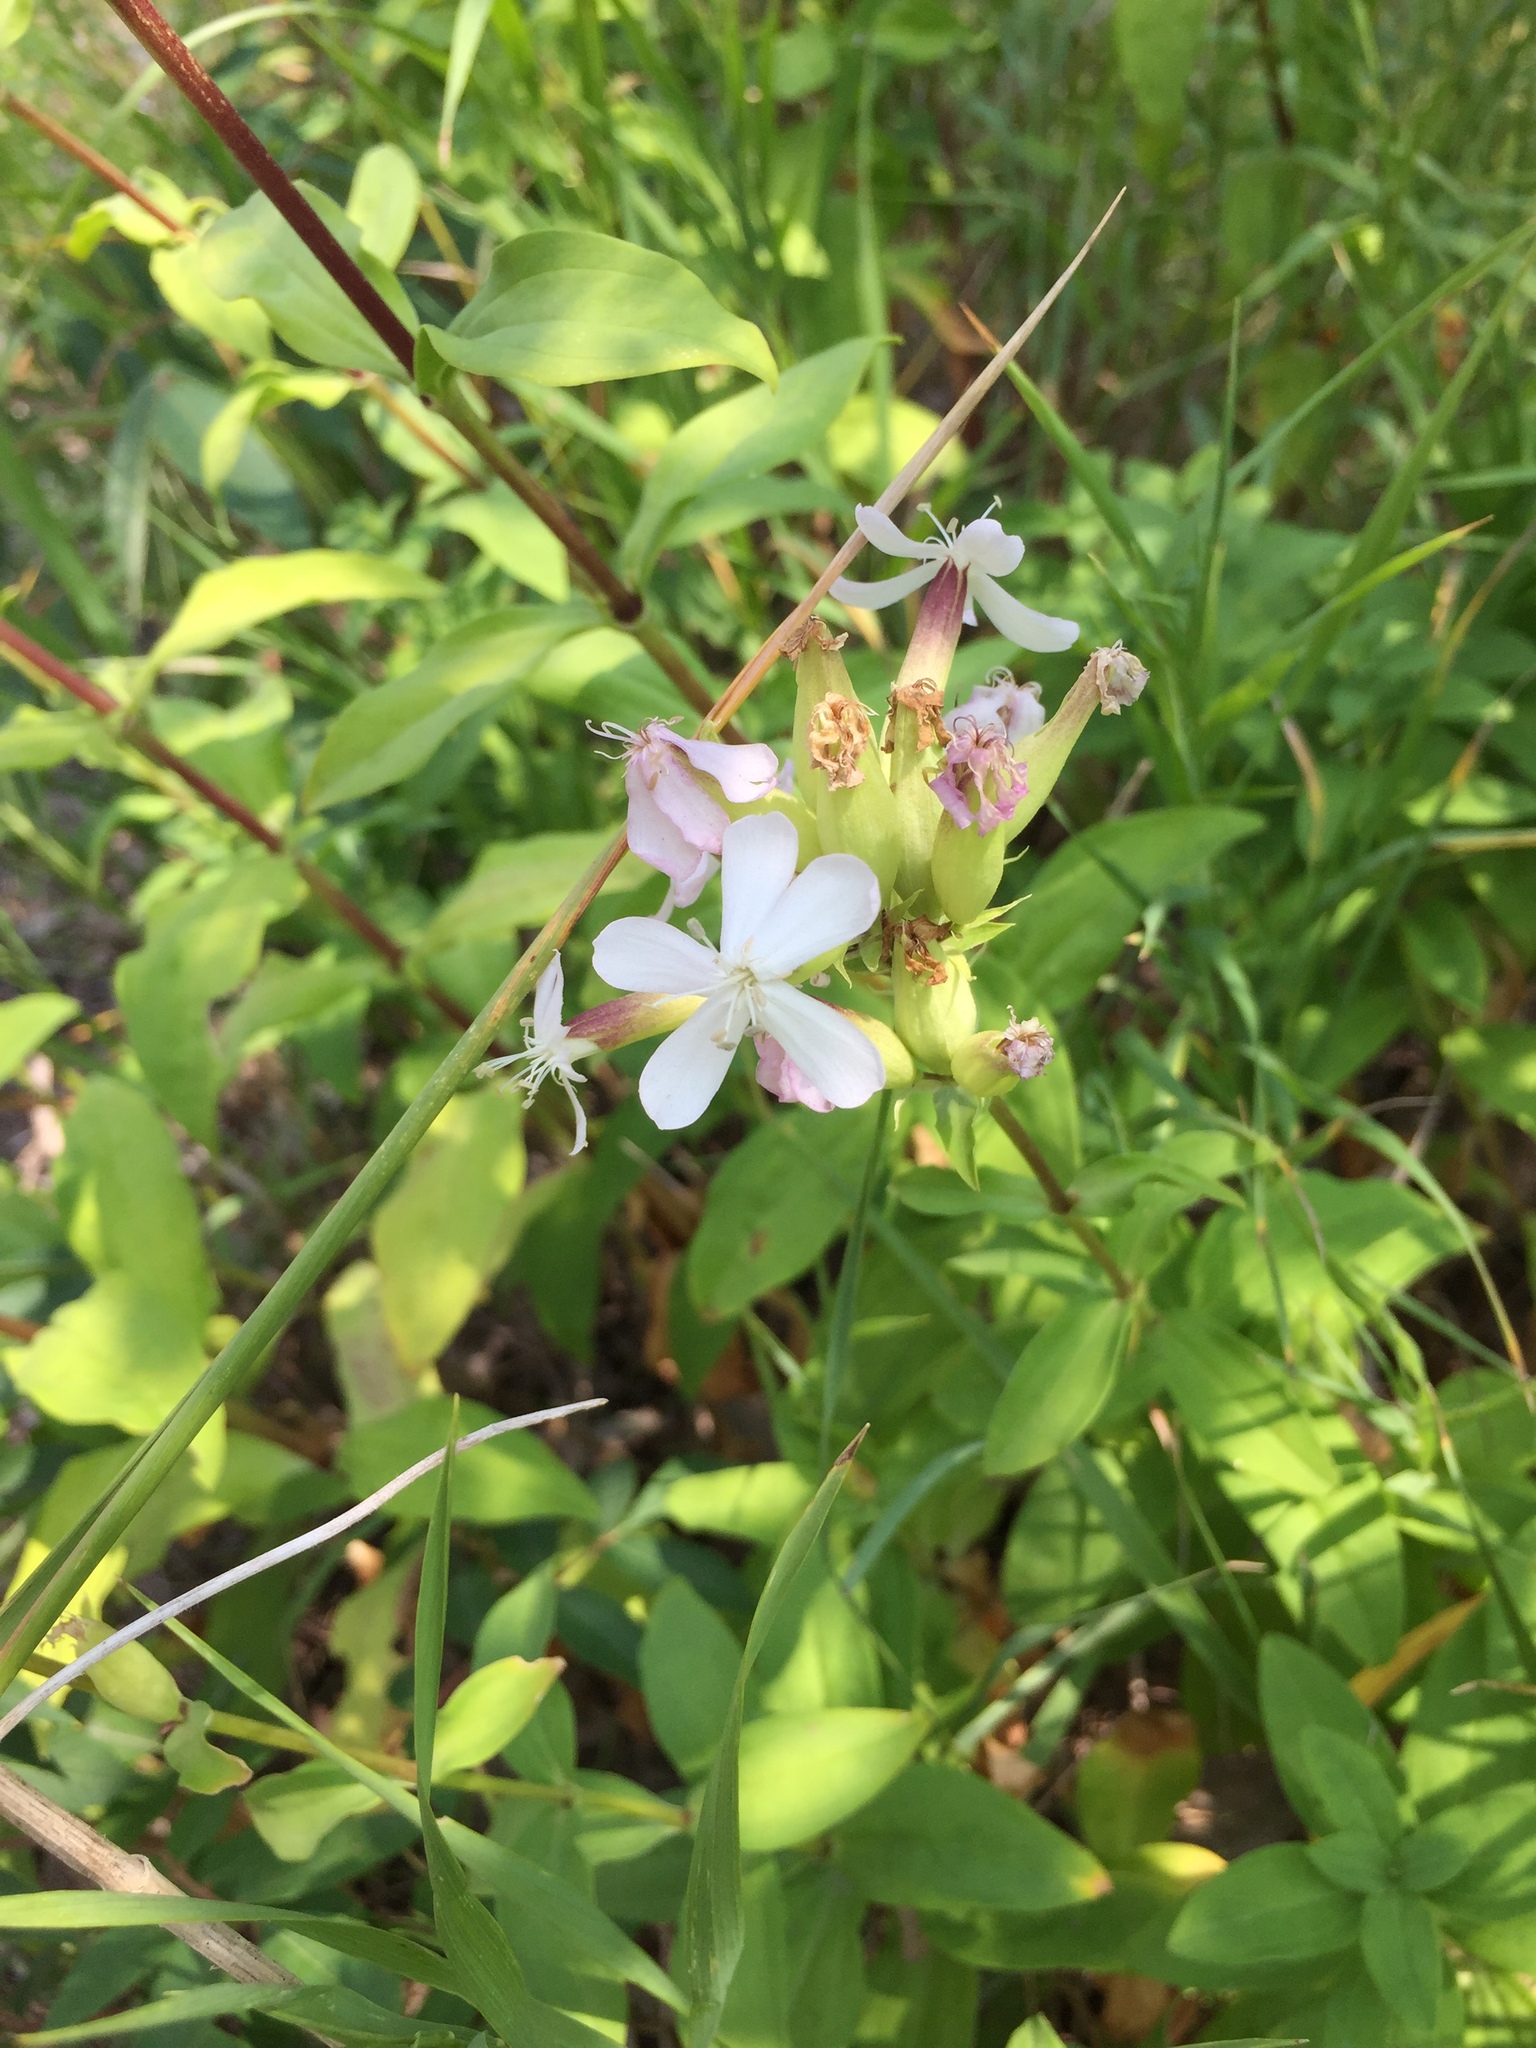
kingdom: Plantae
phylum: Tracheophyta
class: Magnoliopsida
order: Caryophyllales
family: Caryophyllaceae
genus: Saponaria
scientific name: Saponaria officinalis
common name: Soapwort
